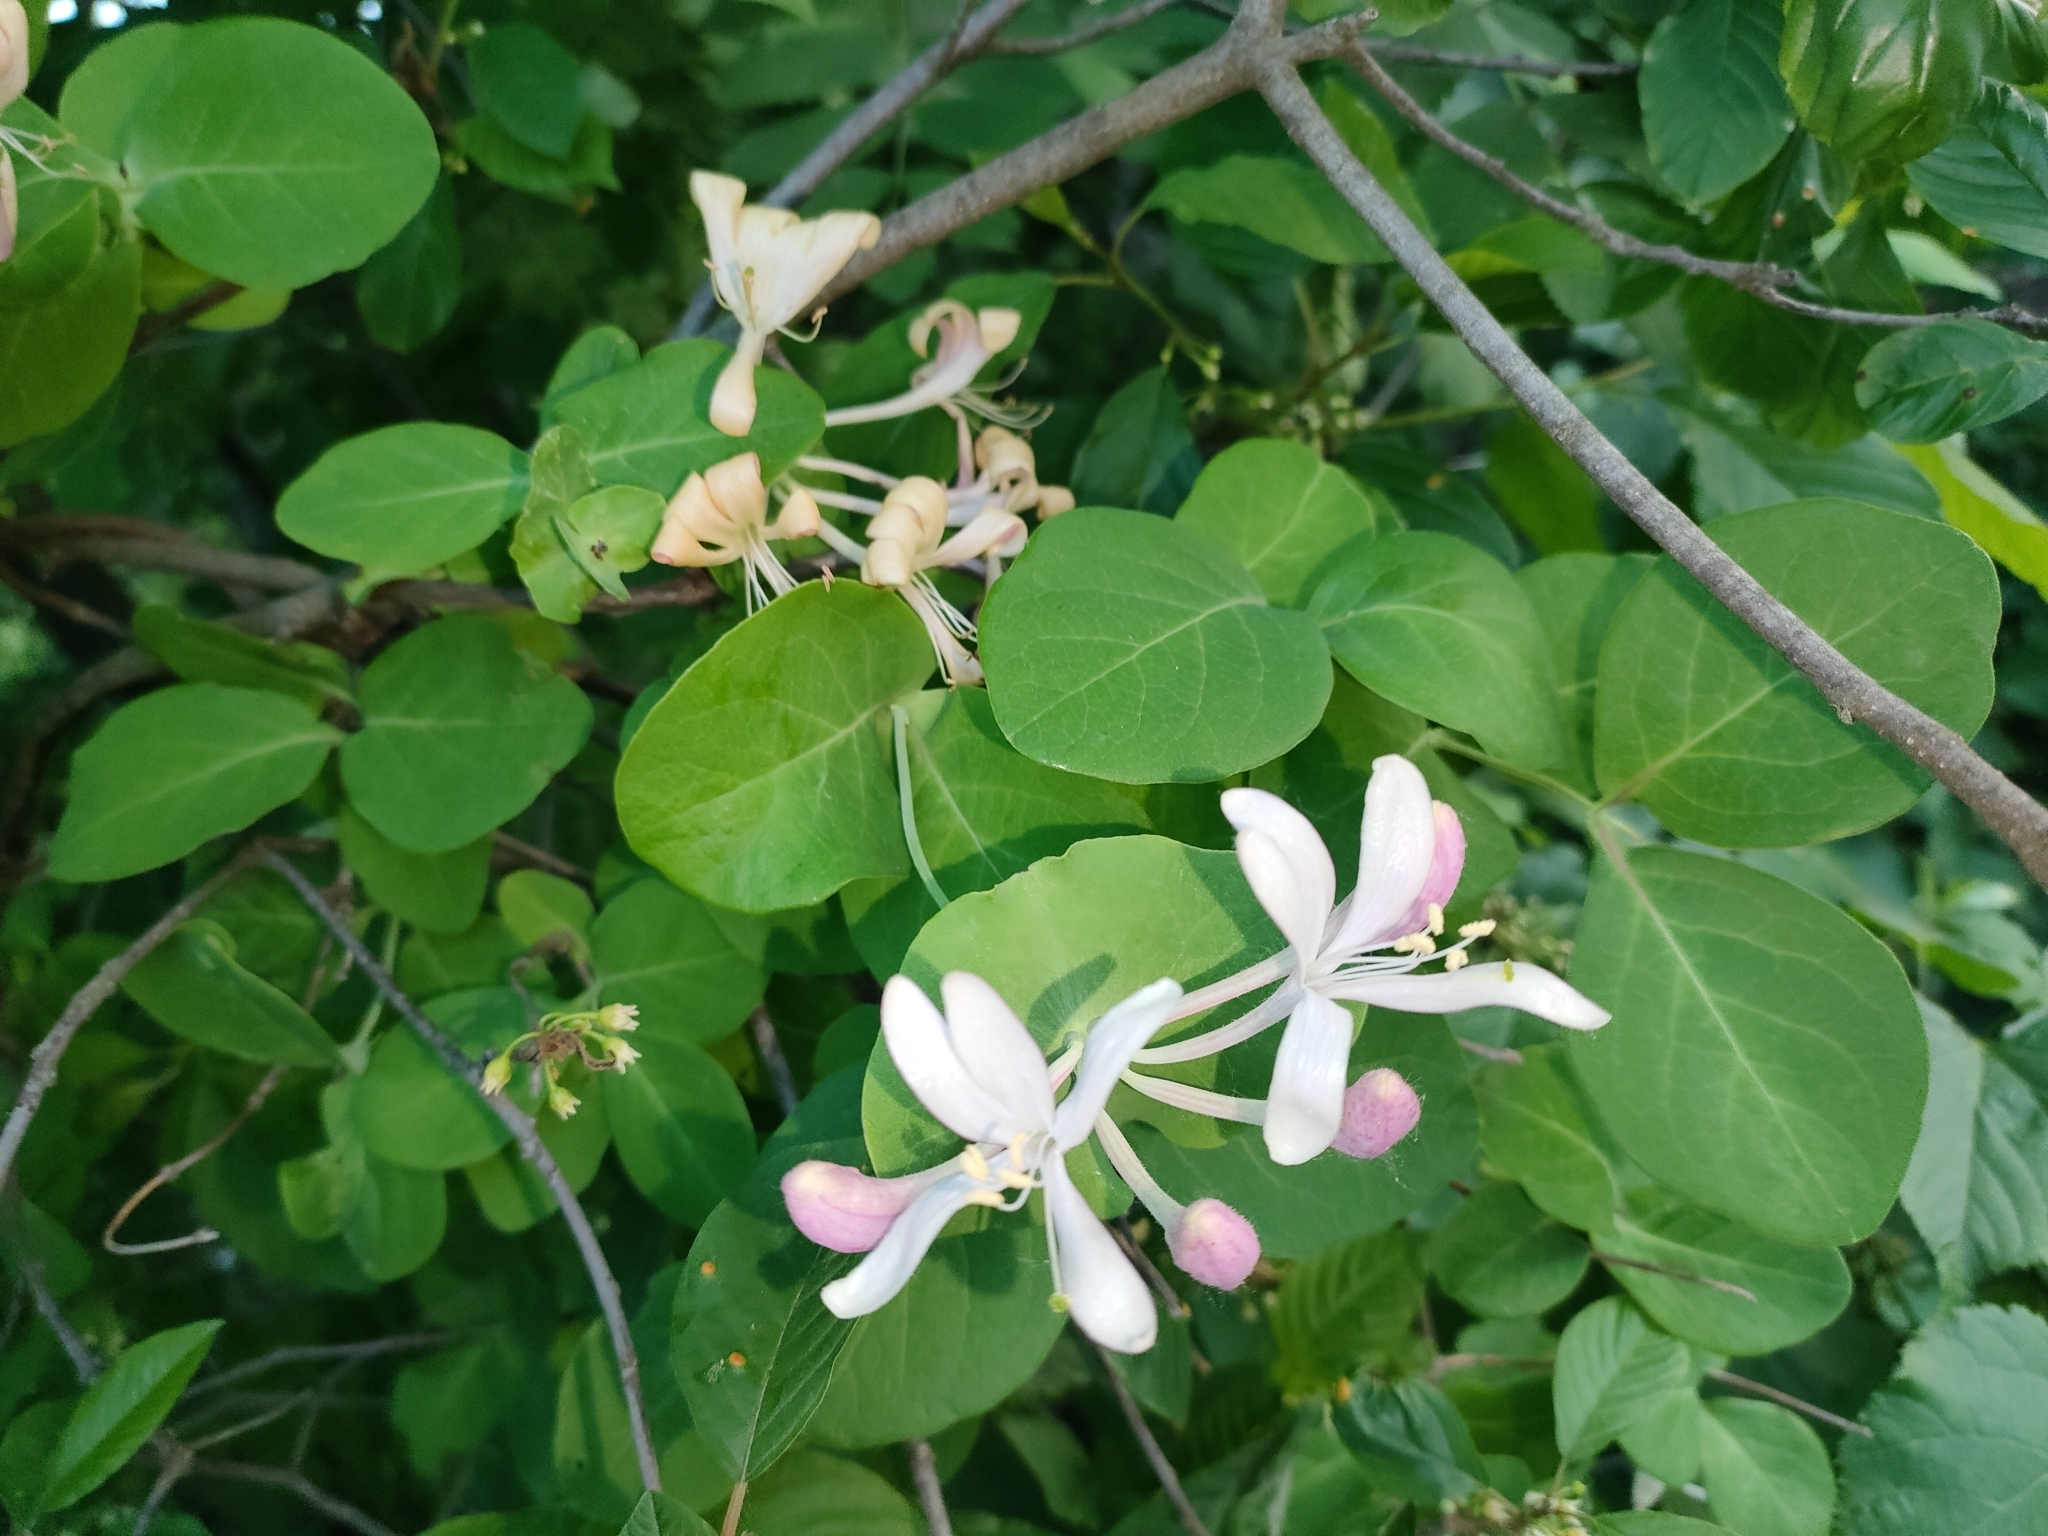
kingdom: Plantae
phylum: Tracheophyta
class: Magnoliopsida
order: Dipsacales
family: Caprifoliaceae
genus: Lonicera
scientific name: Lonicera caprifolium
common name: Perfoliate honeysuckle
